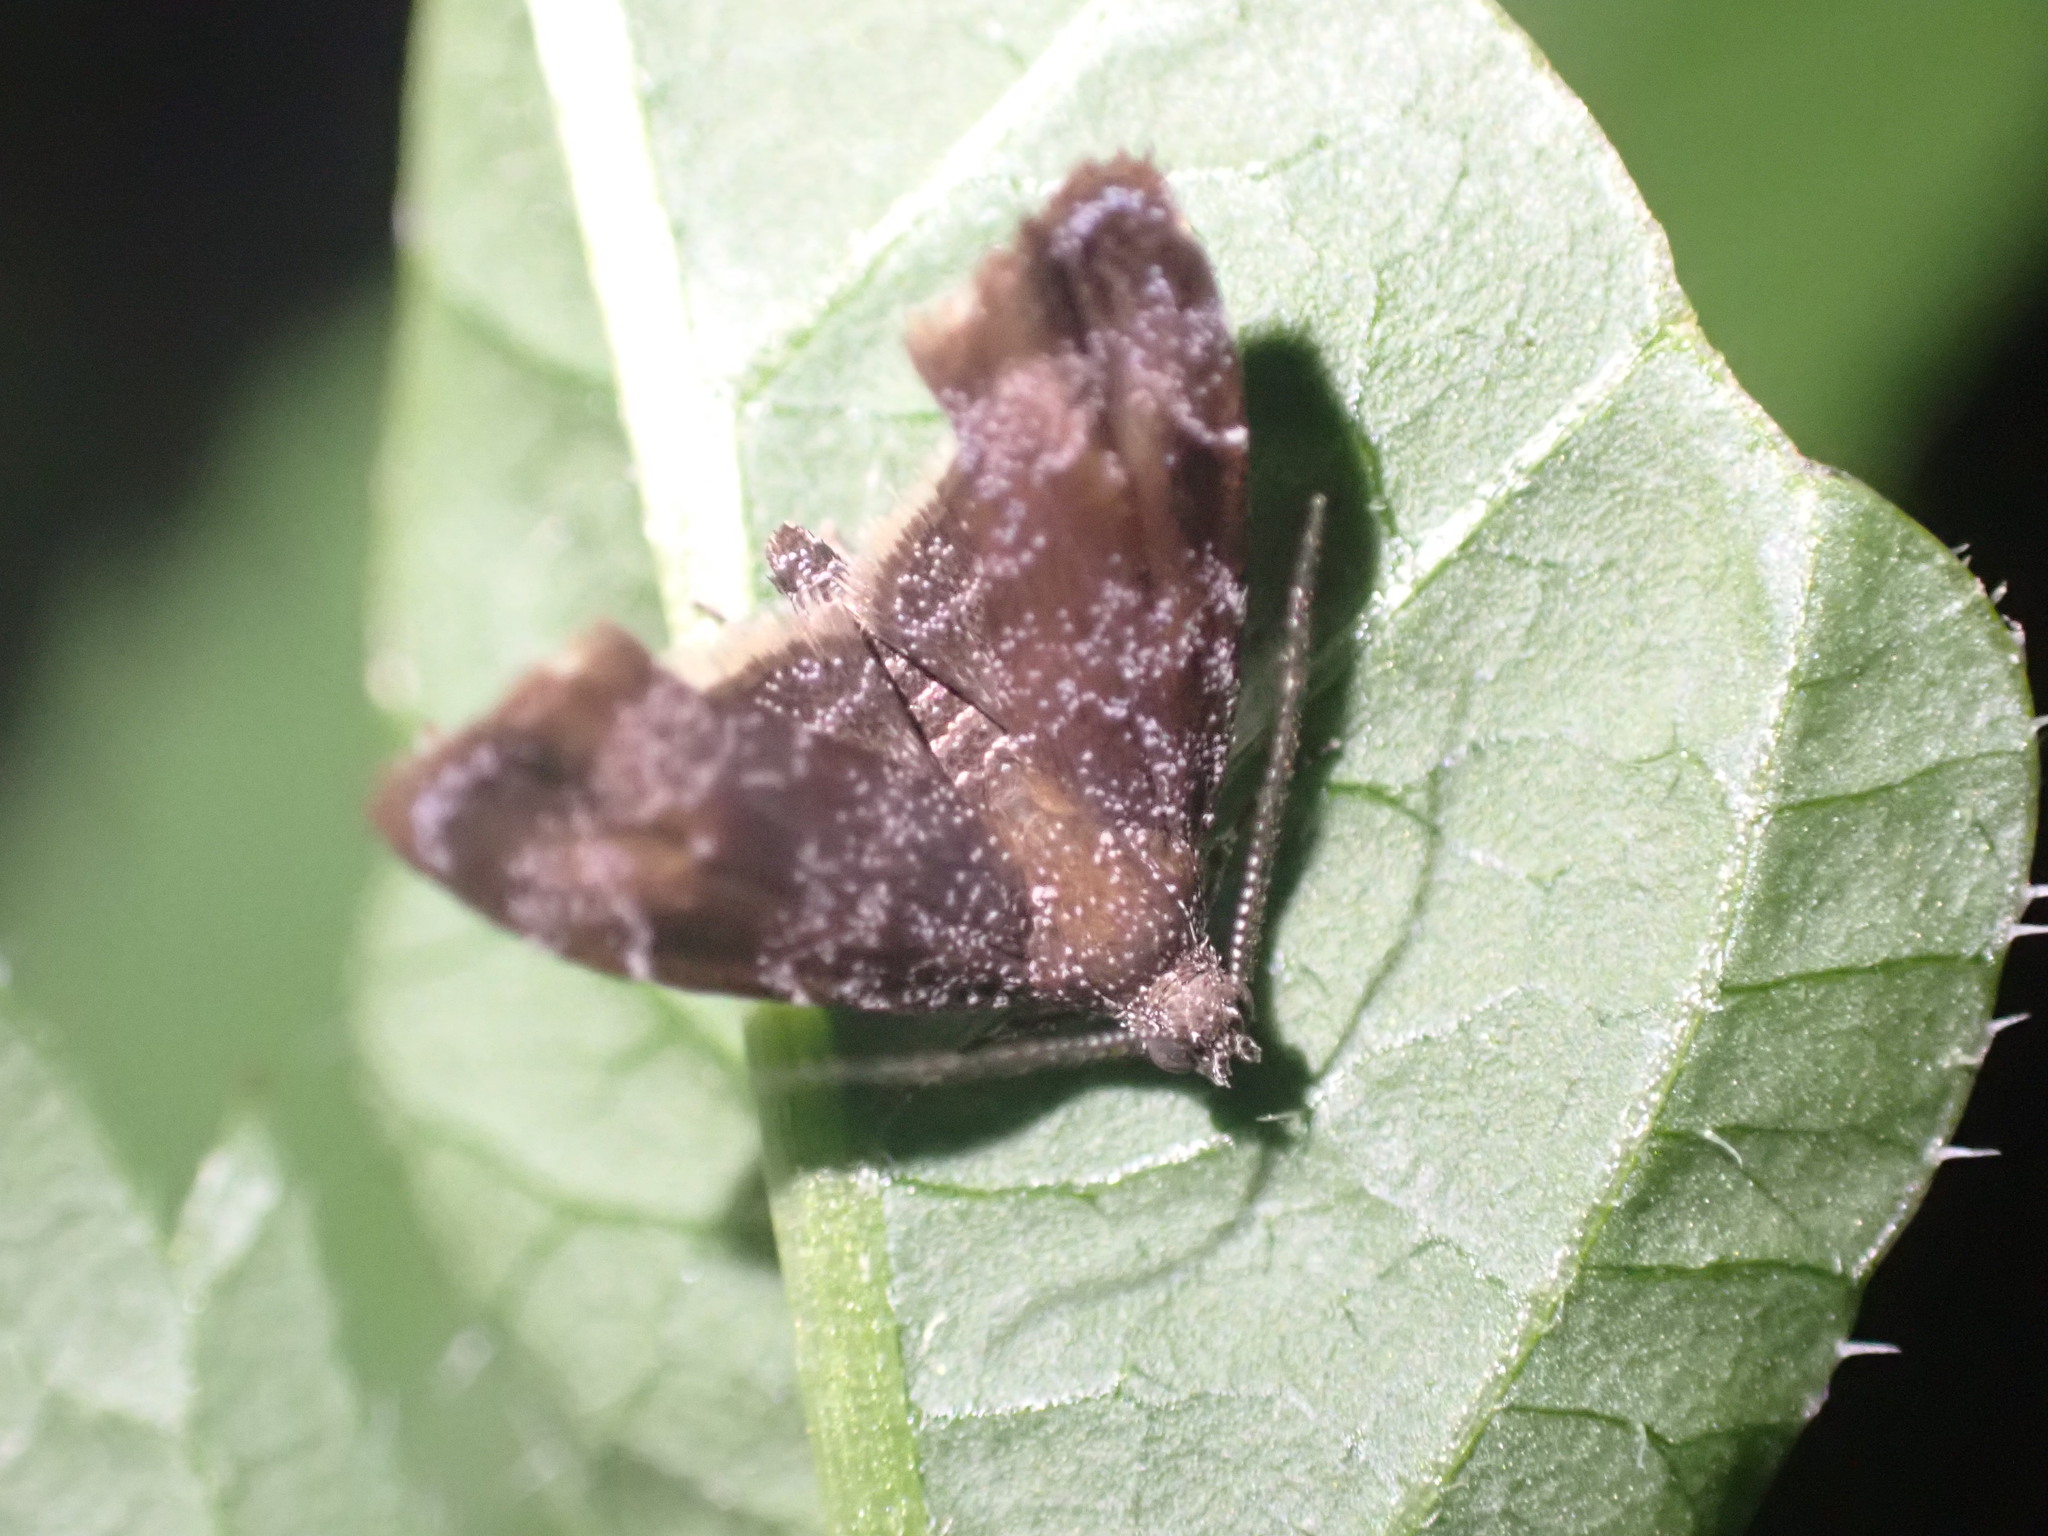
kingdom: Animalia
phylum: Arthropoda
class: Insecta
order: Lepidoptera
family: Choreutidae
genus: Asterivora
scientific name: Asterivora combinatana
